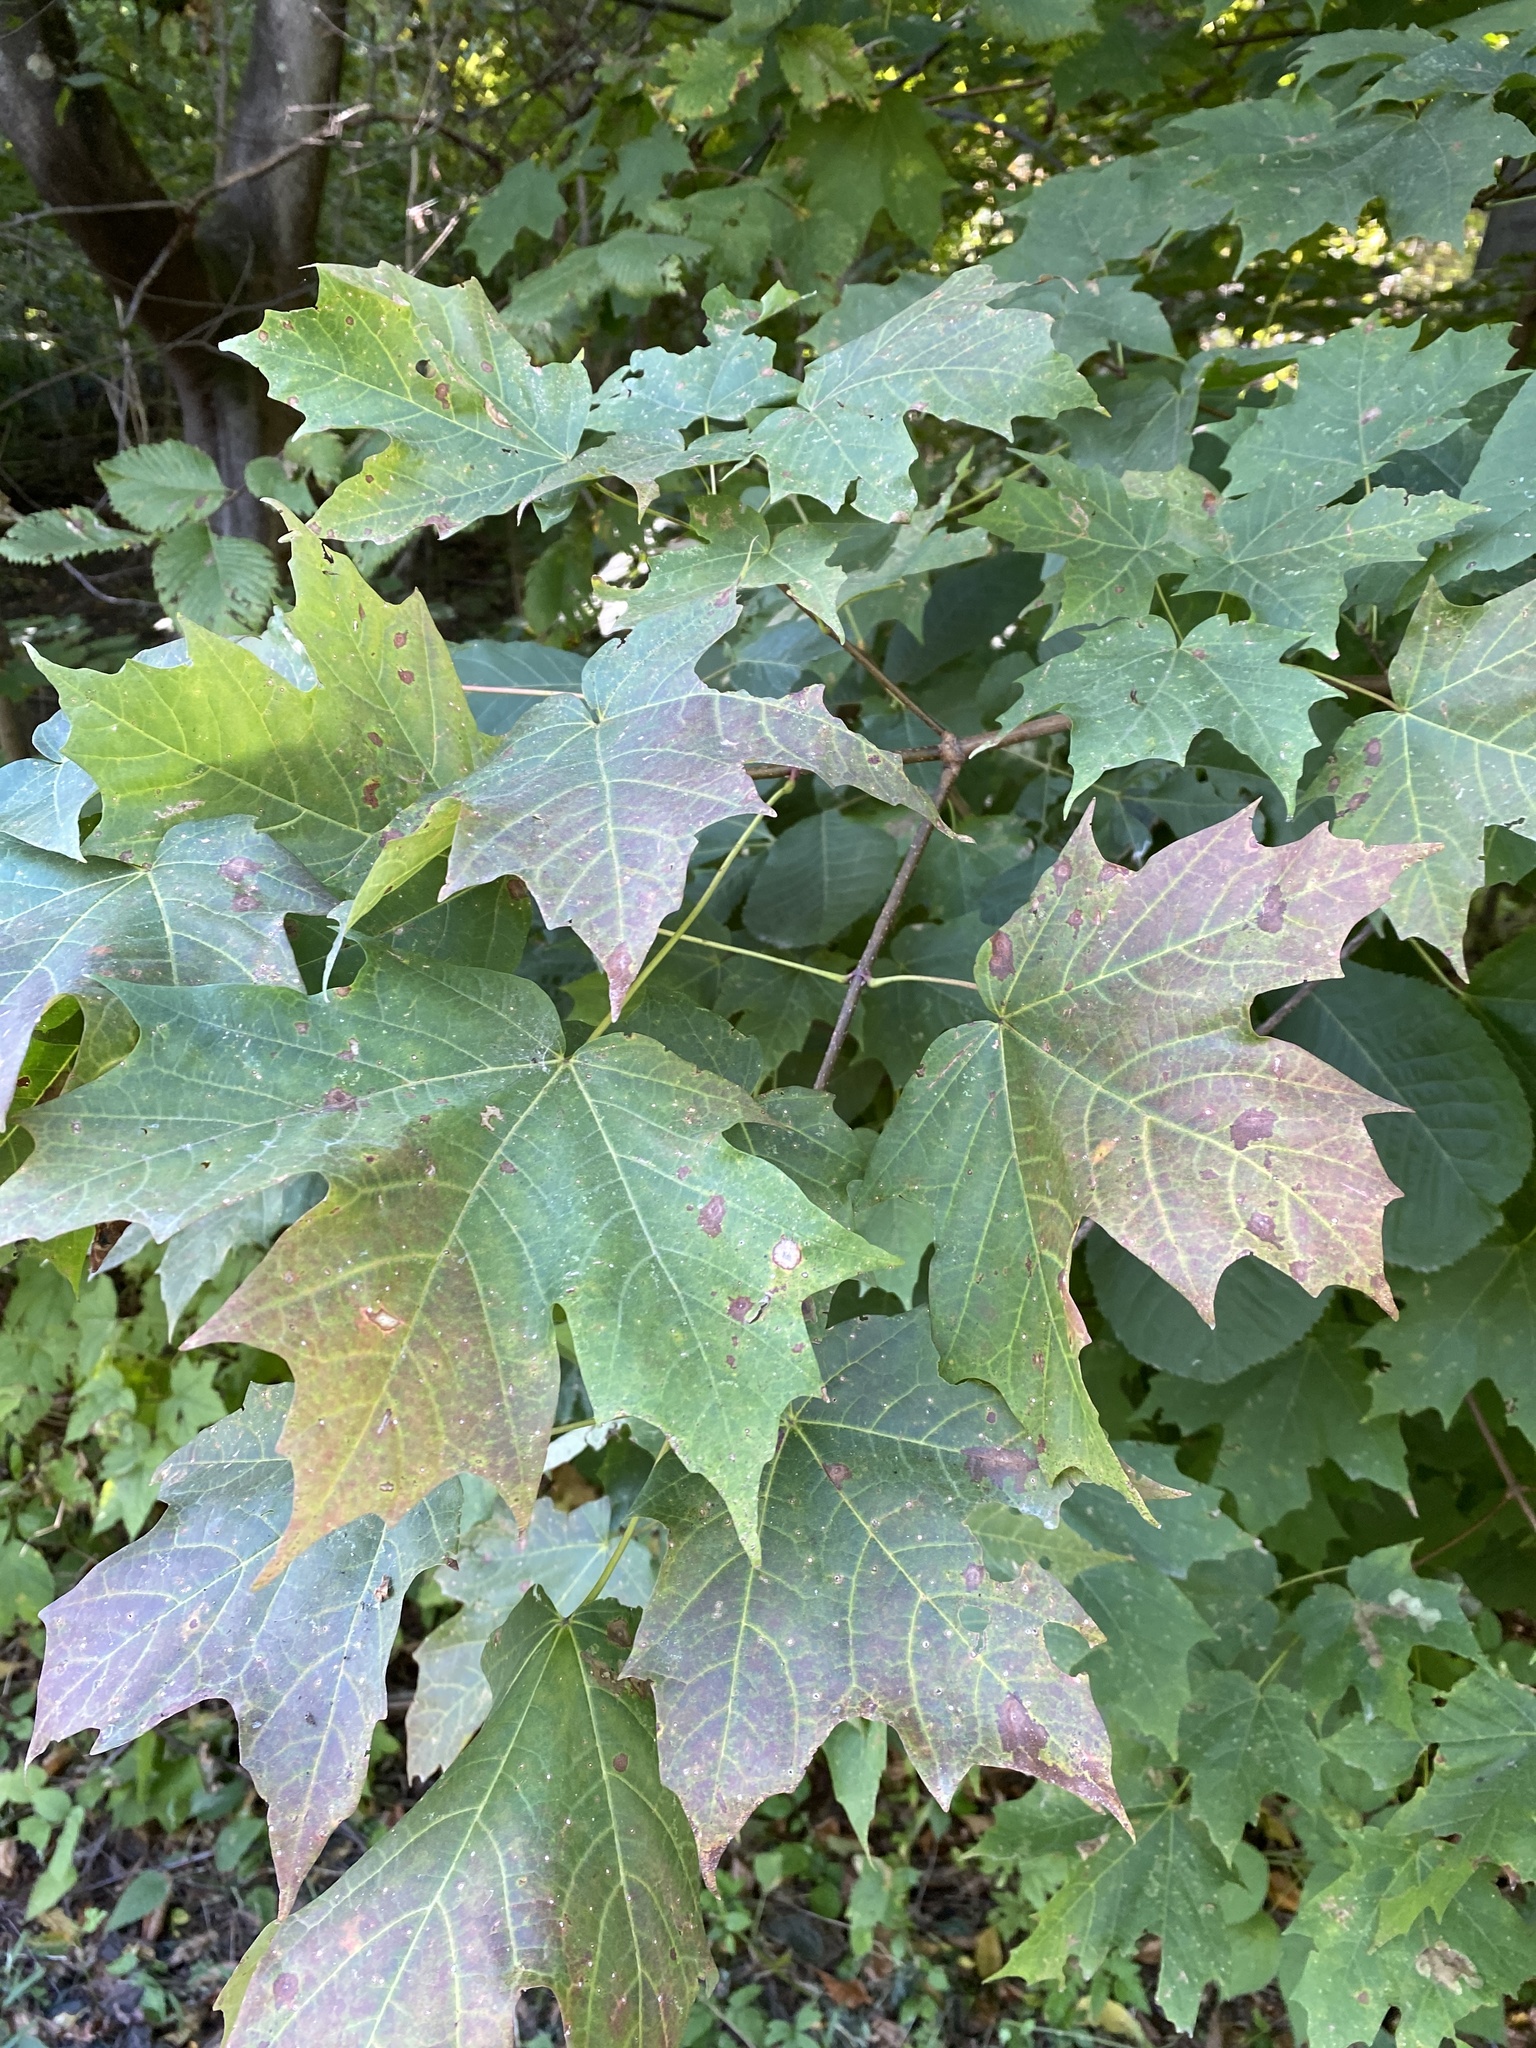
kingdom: Plantae
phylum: Tracheophyta
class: Magnoliopsida
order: Sapindales
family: Sapindaceae
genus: Acer
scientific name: Acer saccharum
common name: Sugar maple
